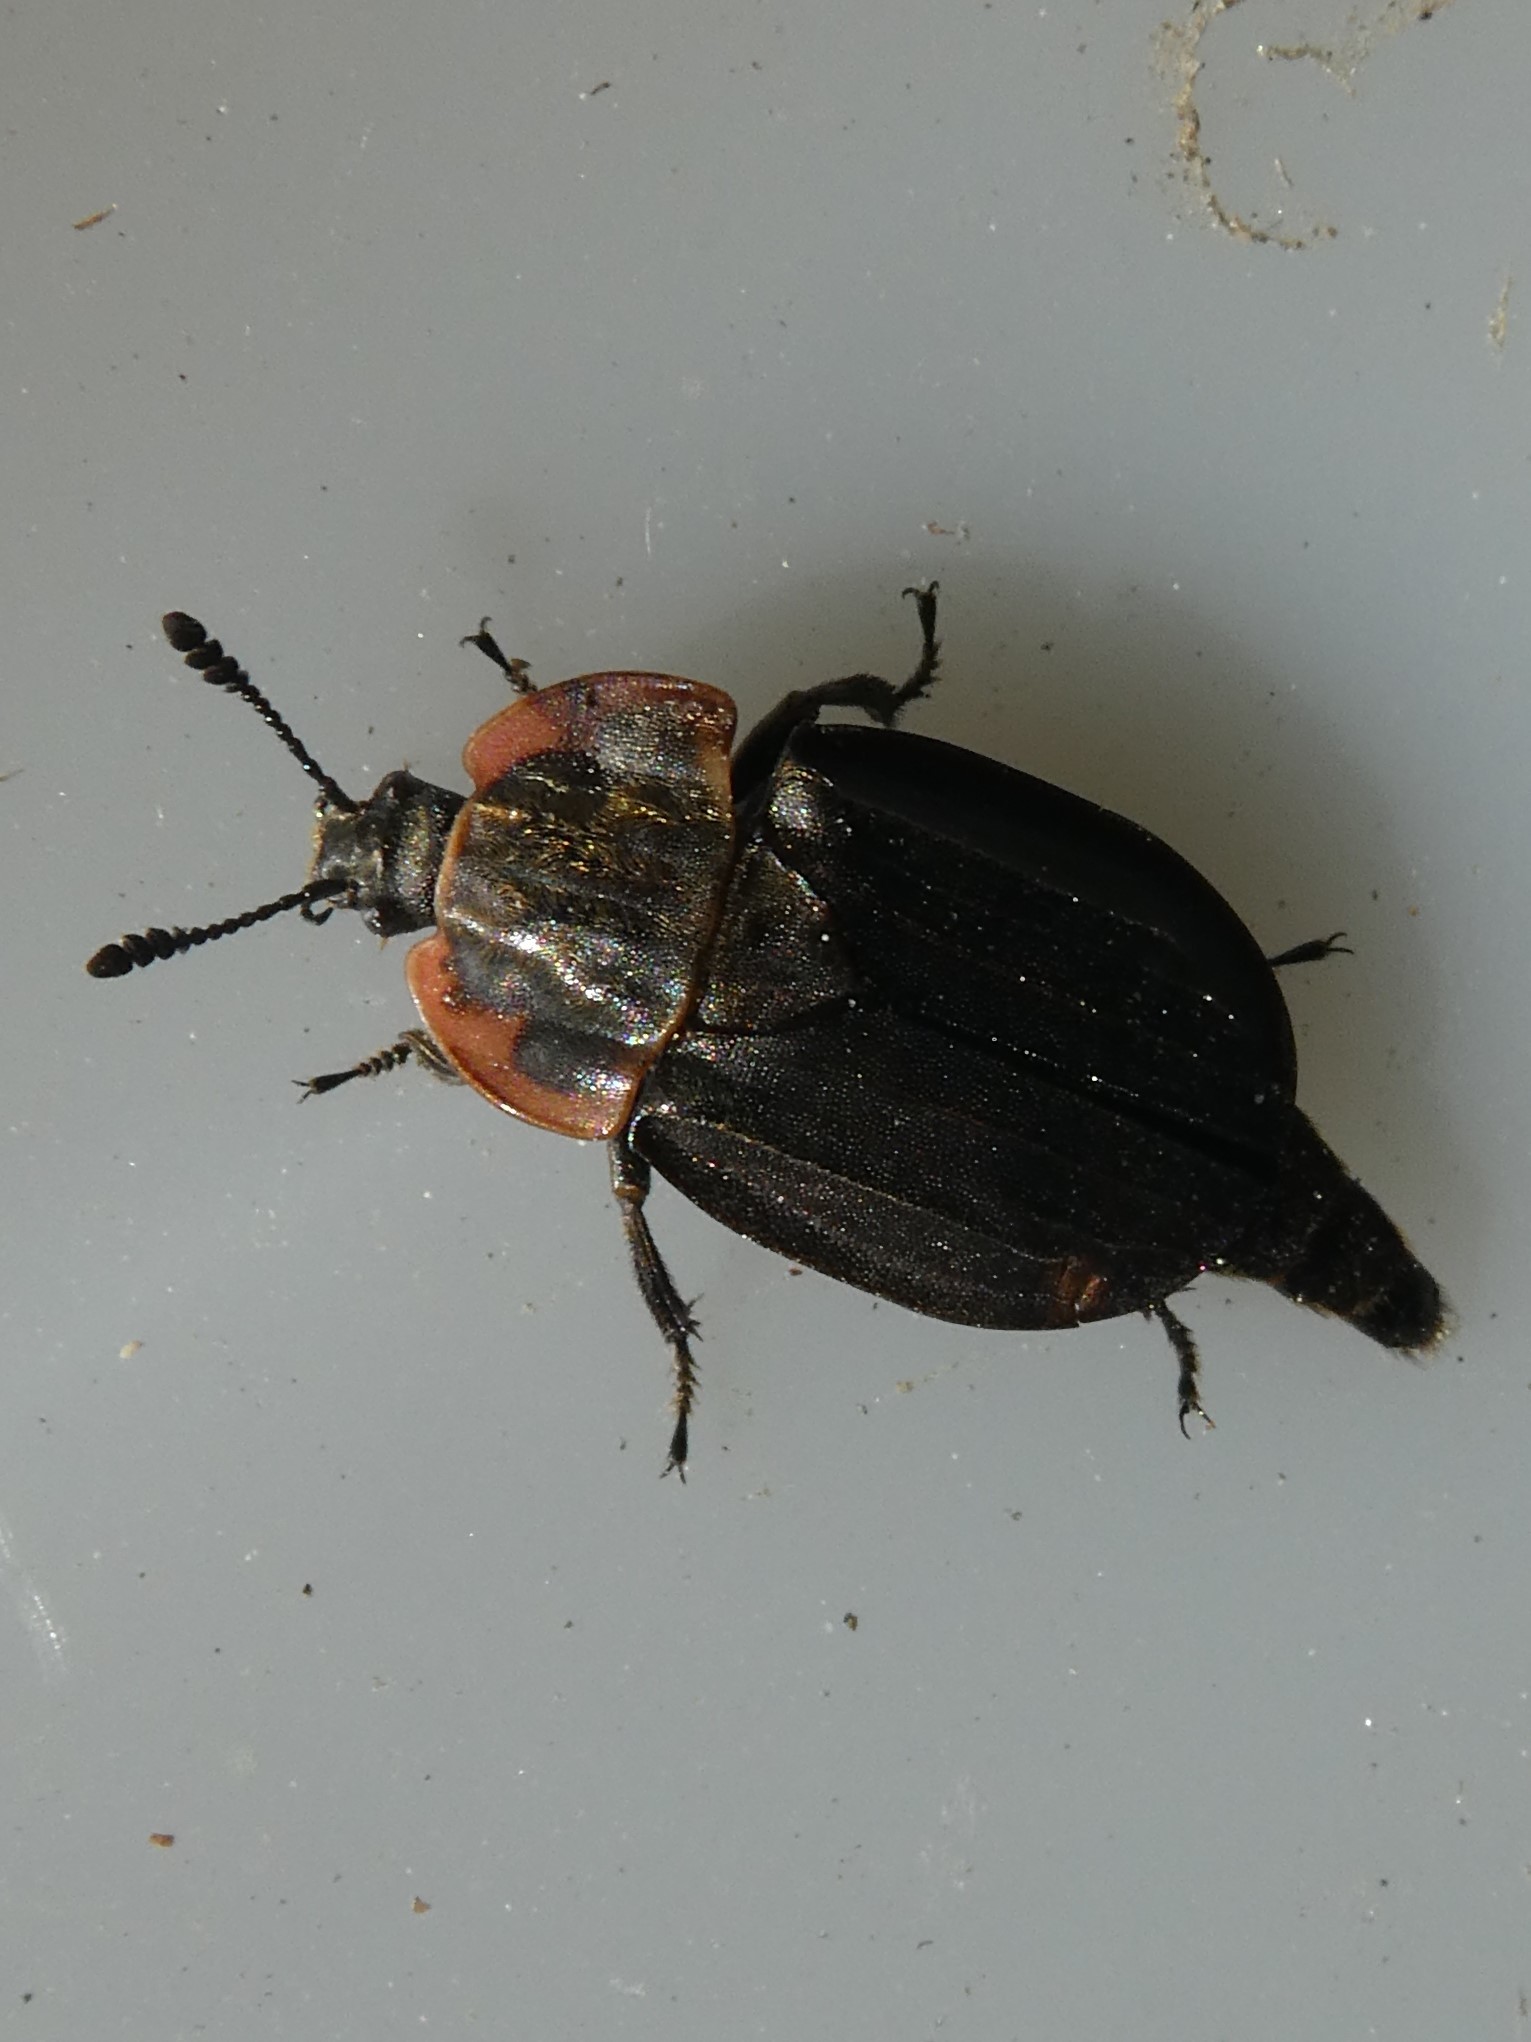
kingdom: Animalia
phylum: Arthropoda
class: Insecta
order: Coleoptera
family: Staphylinidae
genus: Oiceoptoma
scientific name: Oiceoptoma noveboracense
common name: Margined carrion beetle
